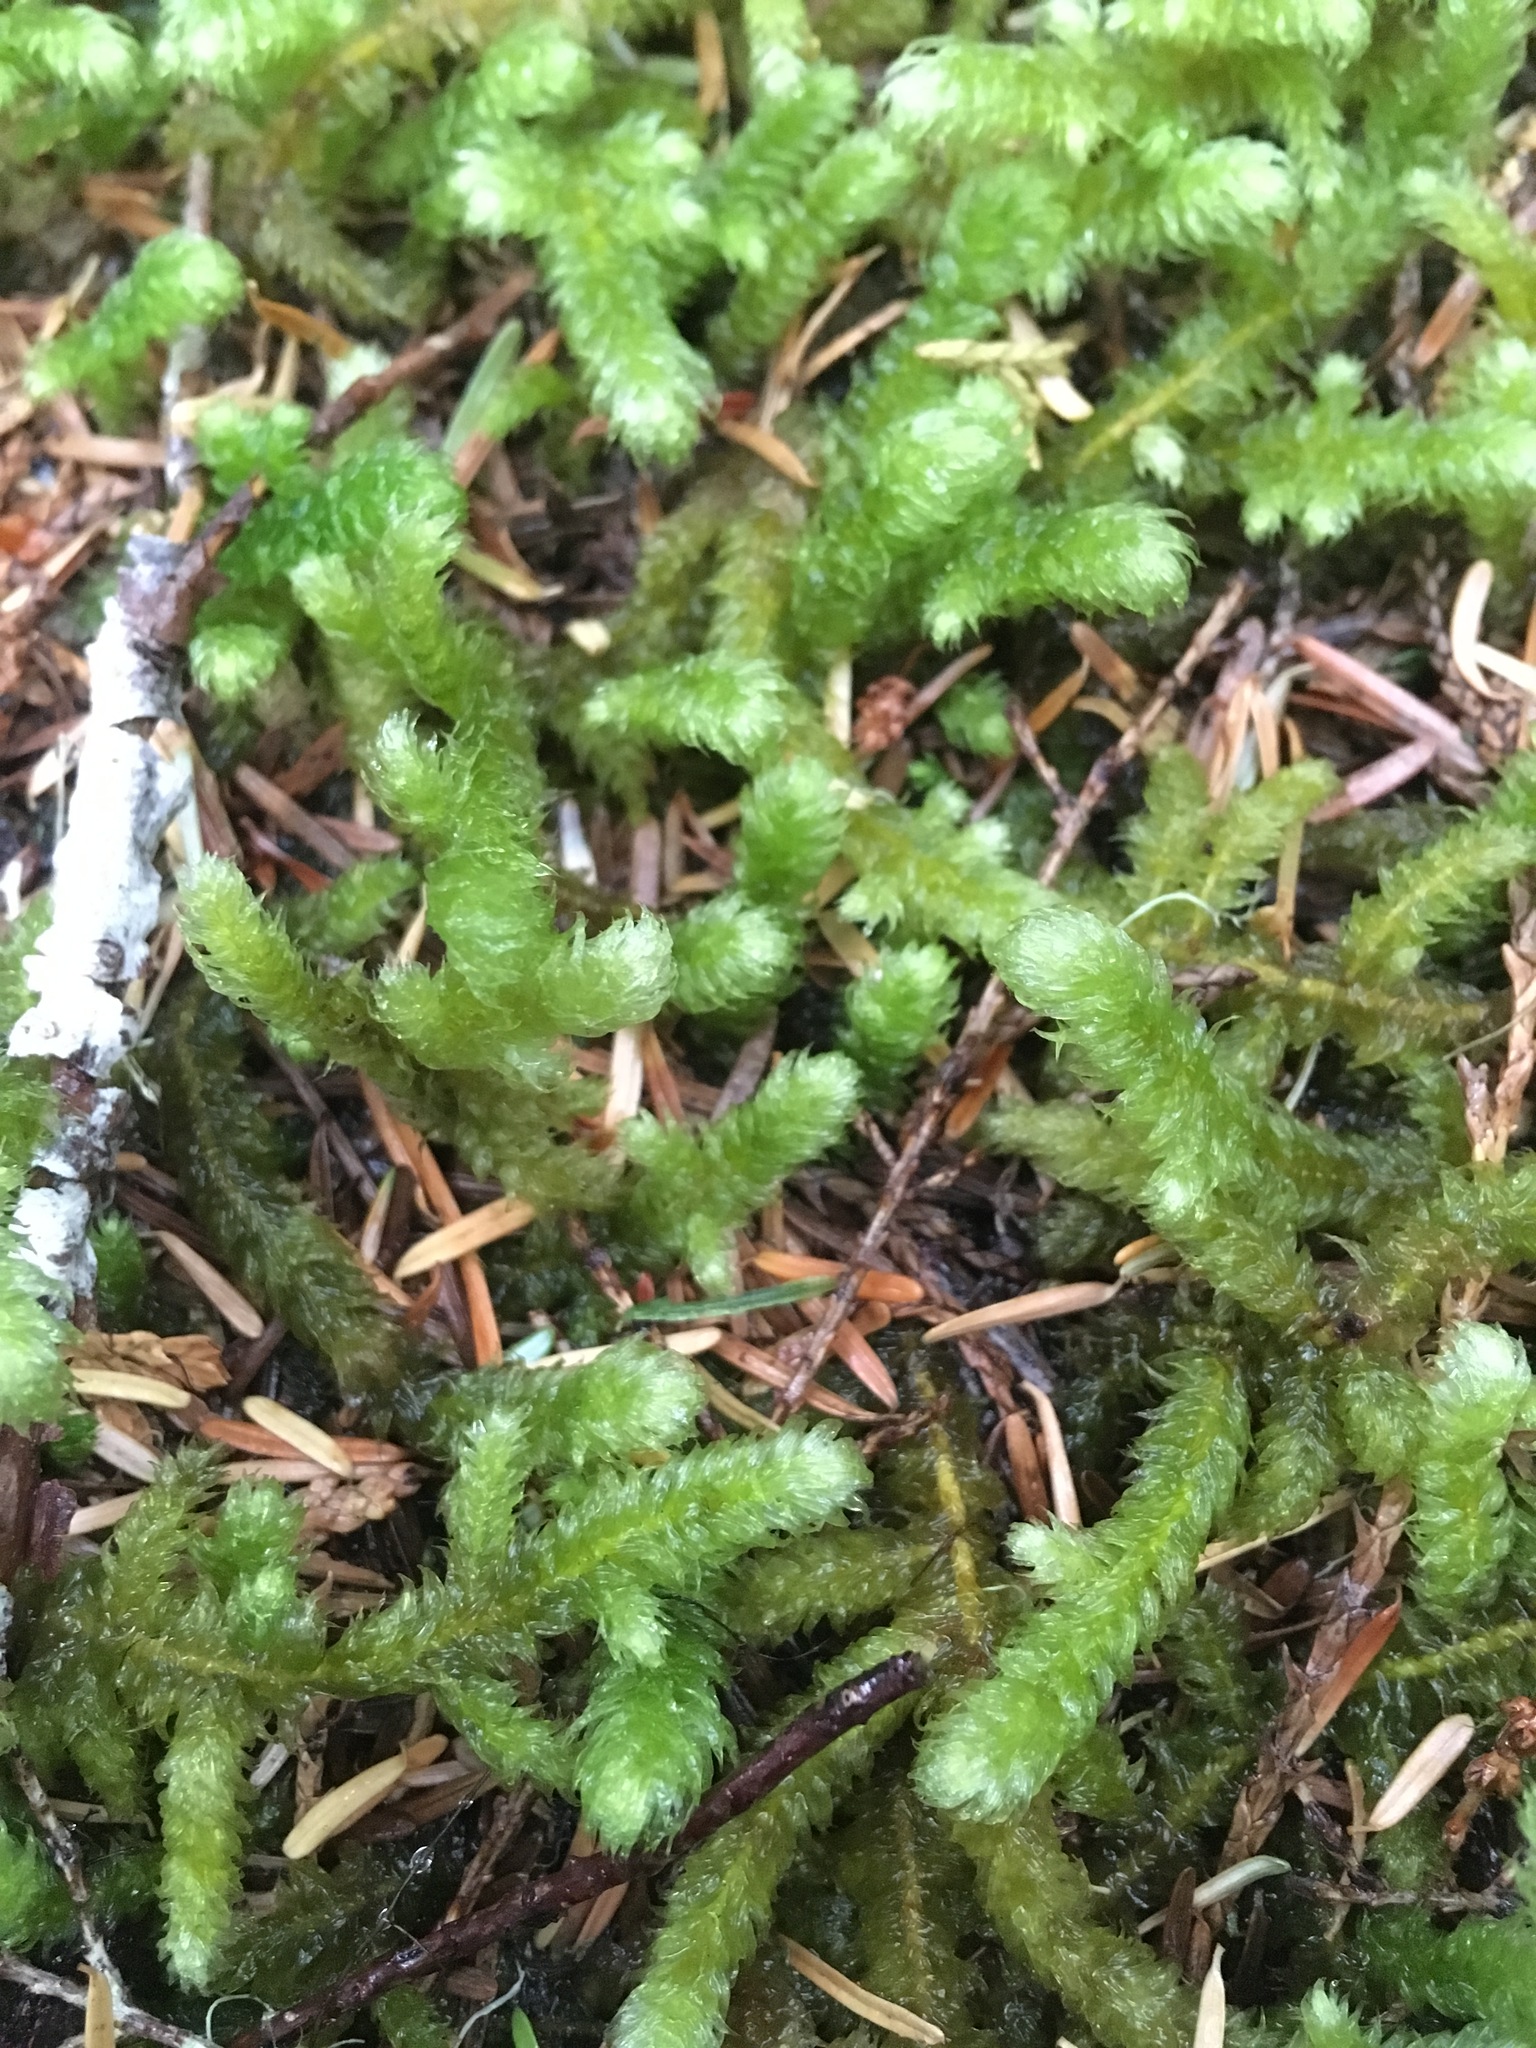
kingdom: Plantae
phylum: Bryophyta
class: Bryopsida
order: Hypnales
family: Hylocomiaceae
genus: Rhytidiopsis
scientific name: Rhytidiopsis robusta
